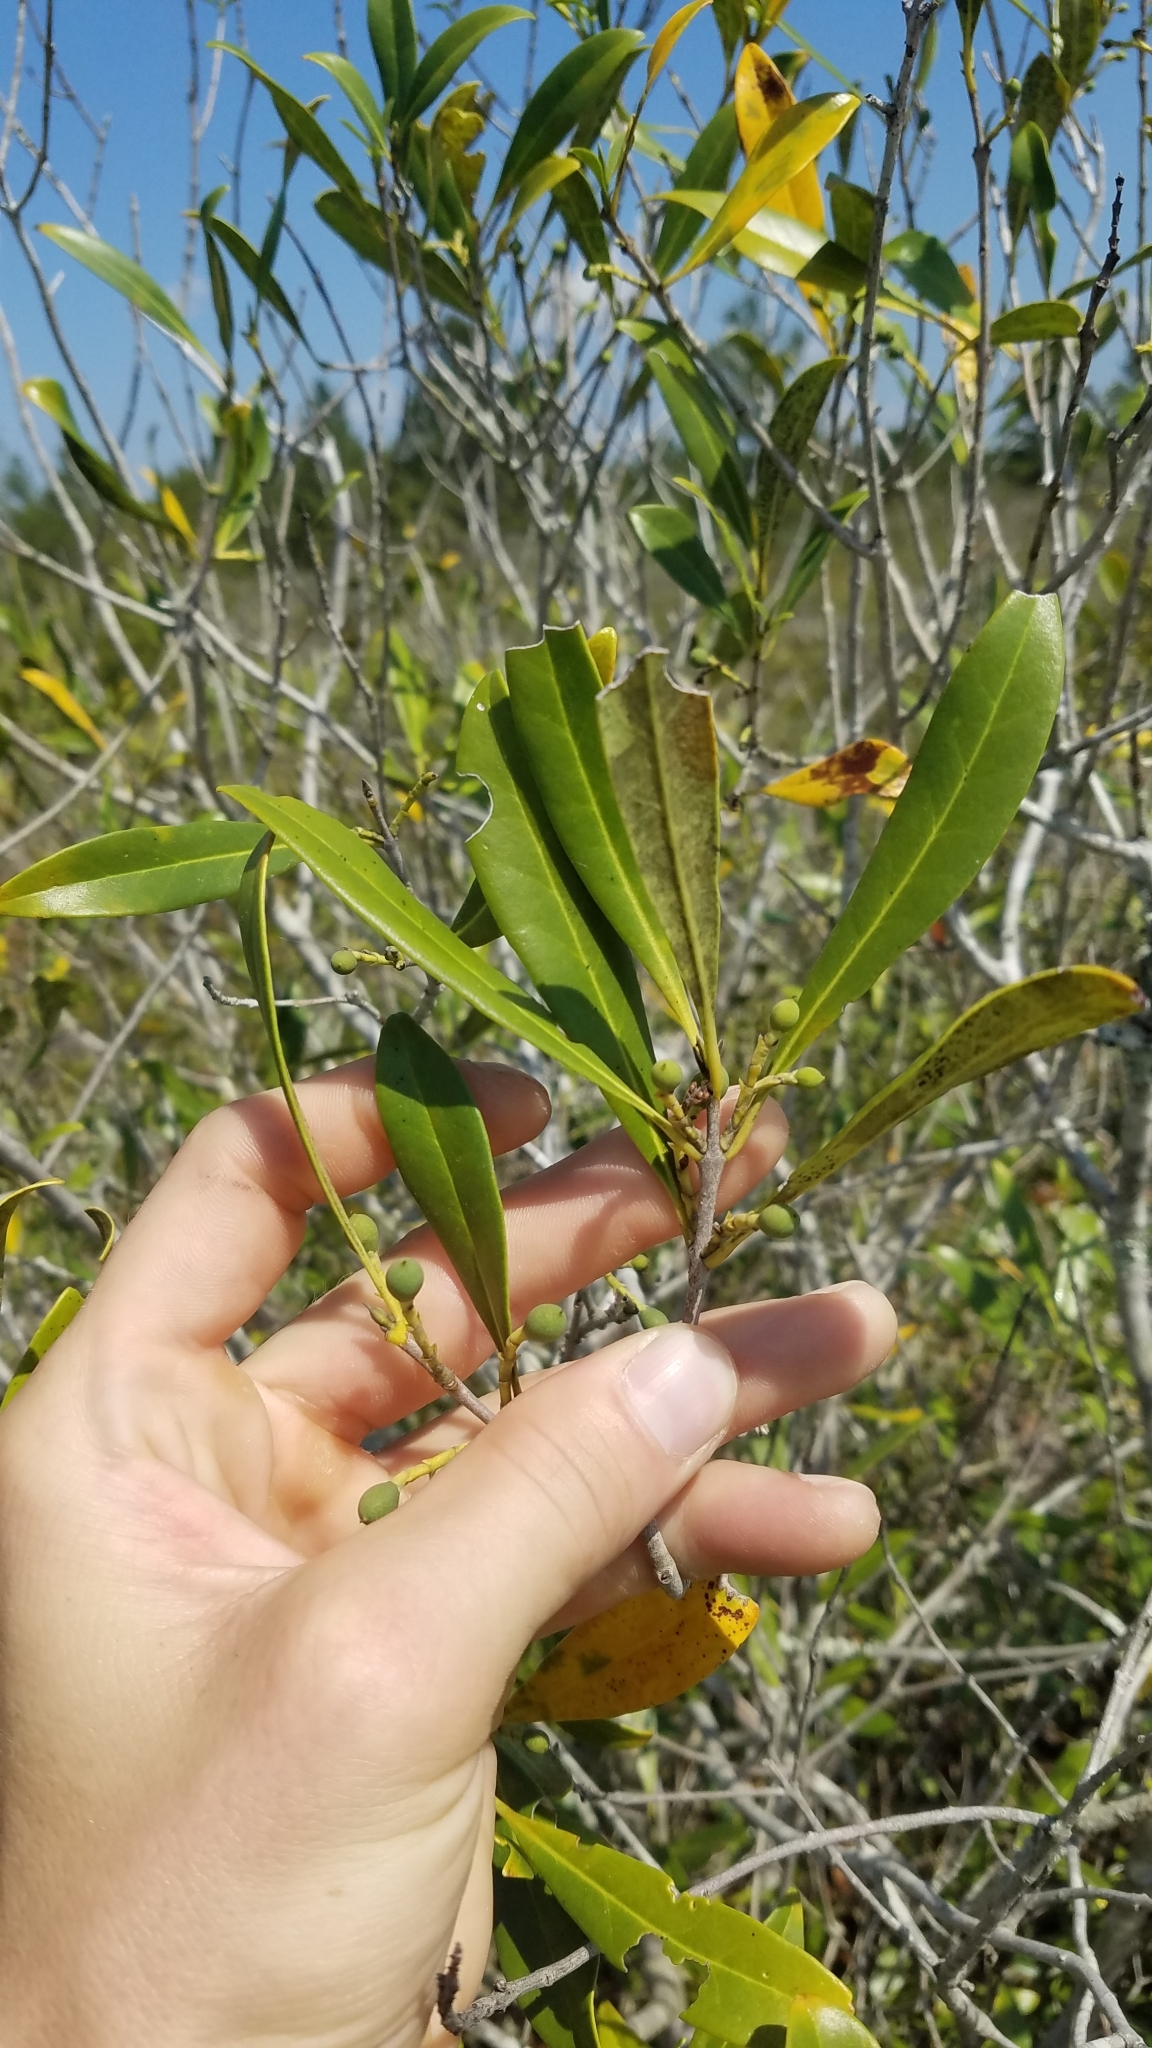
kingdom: Plantae
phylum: Tracheophyta
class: Magnoliopsida
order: Lamiales
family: Oleaceae
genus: Cartrema
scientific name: Cartrema floridana
